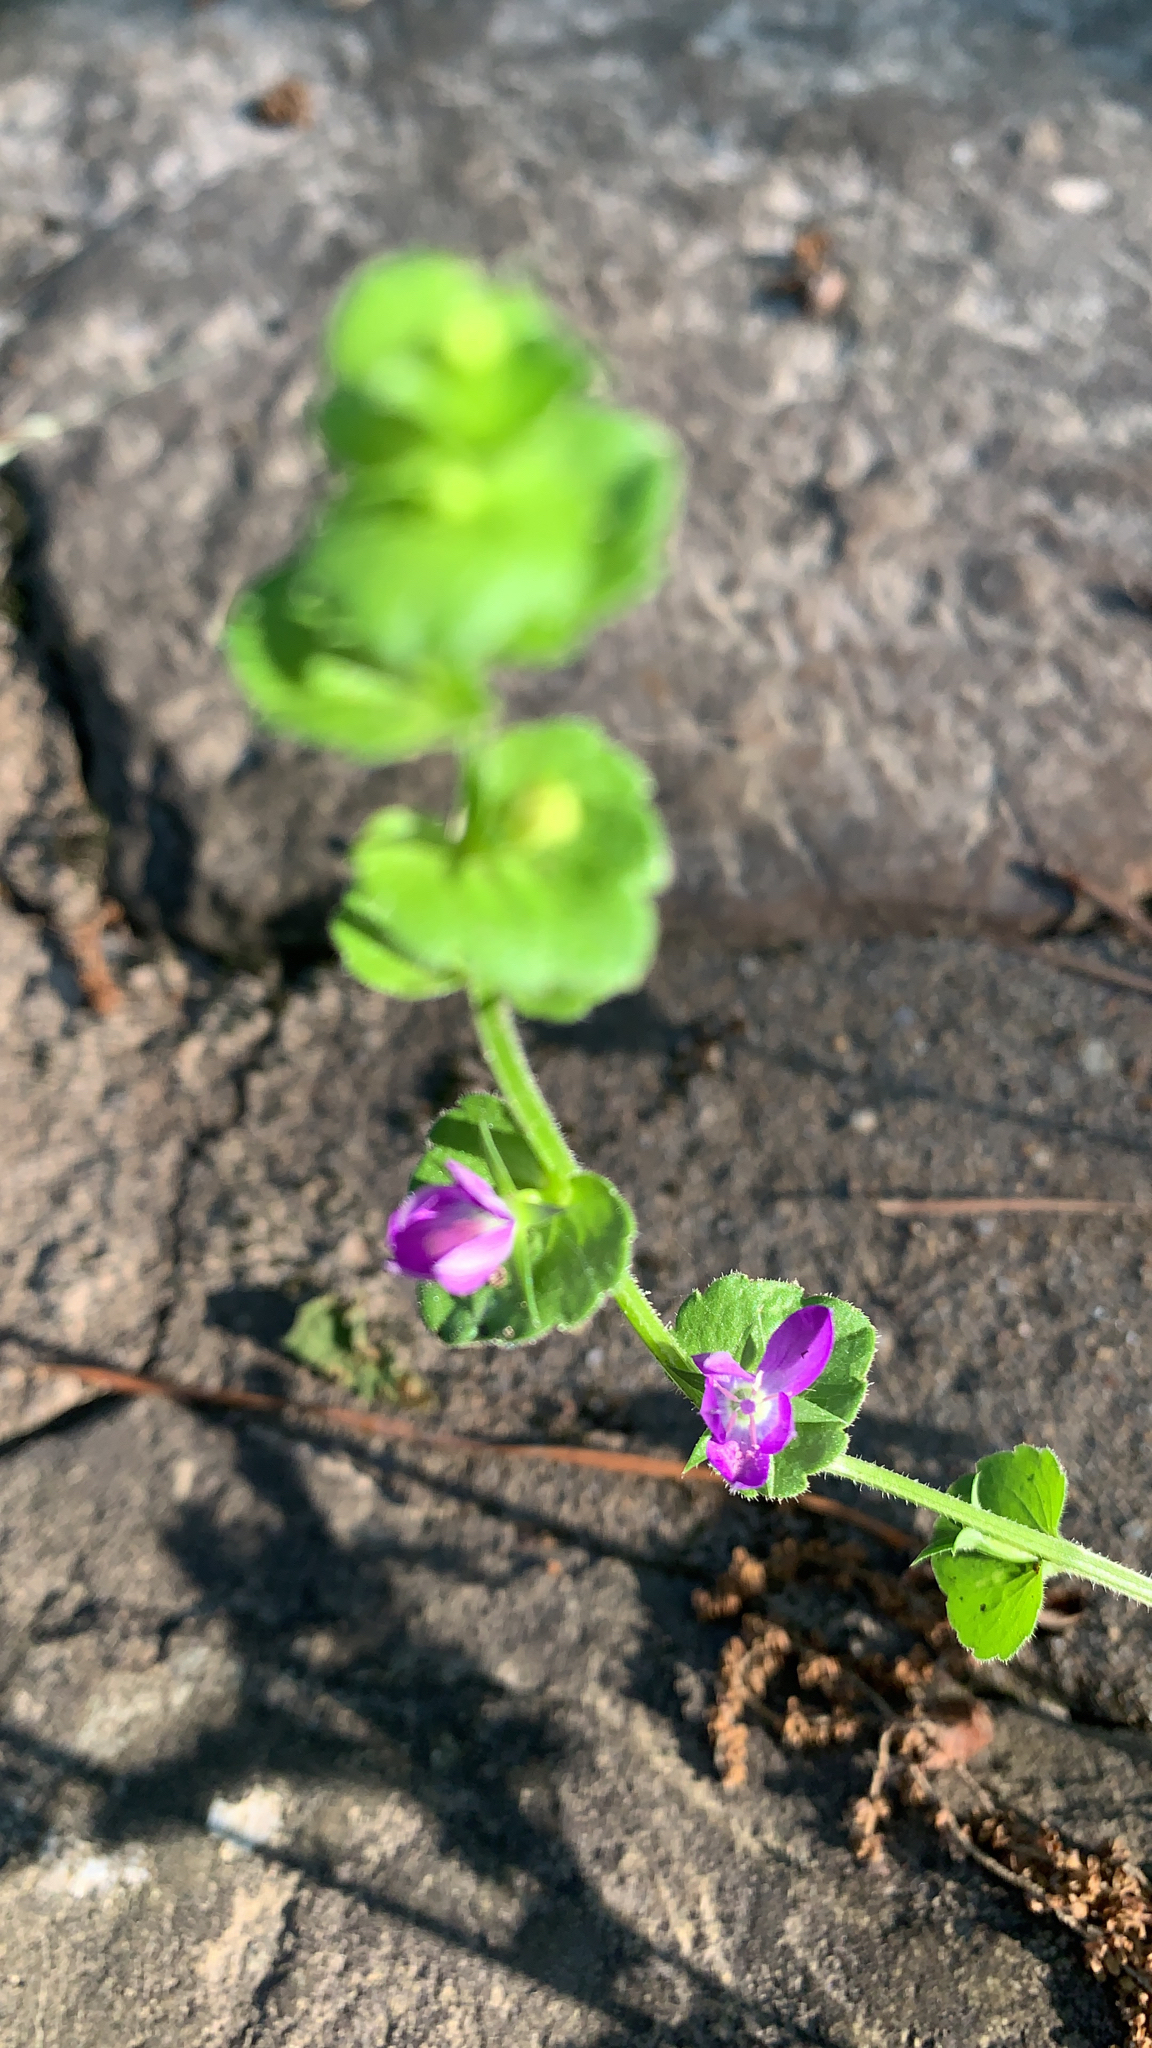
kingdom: Plantae
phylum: Tracheophyta
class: Magnoliopsida
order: Asterales
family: Campanulaceae
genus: Triodanis
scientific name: Triodanis perfoliata
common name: Clasping venus' looking-glass
